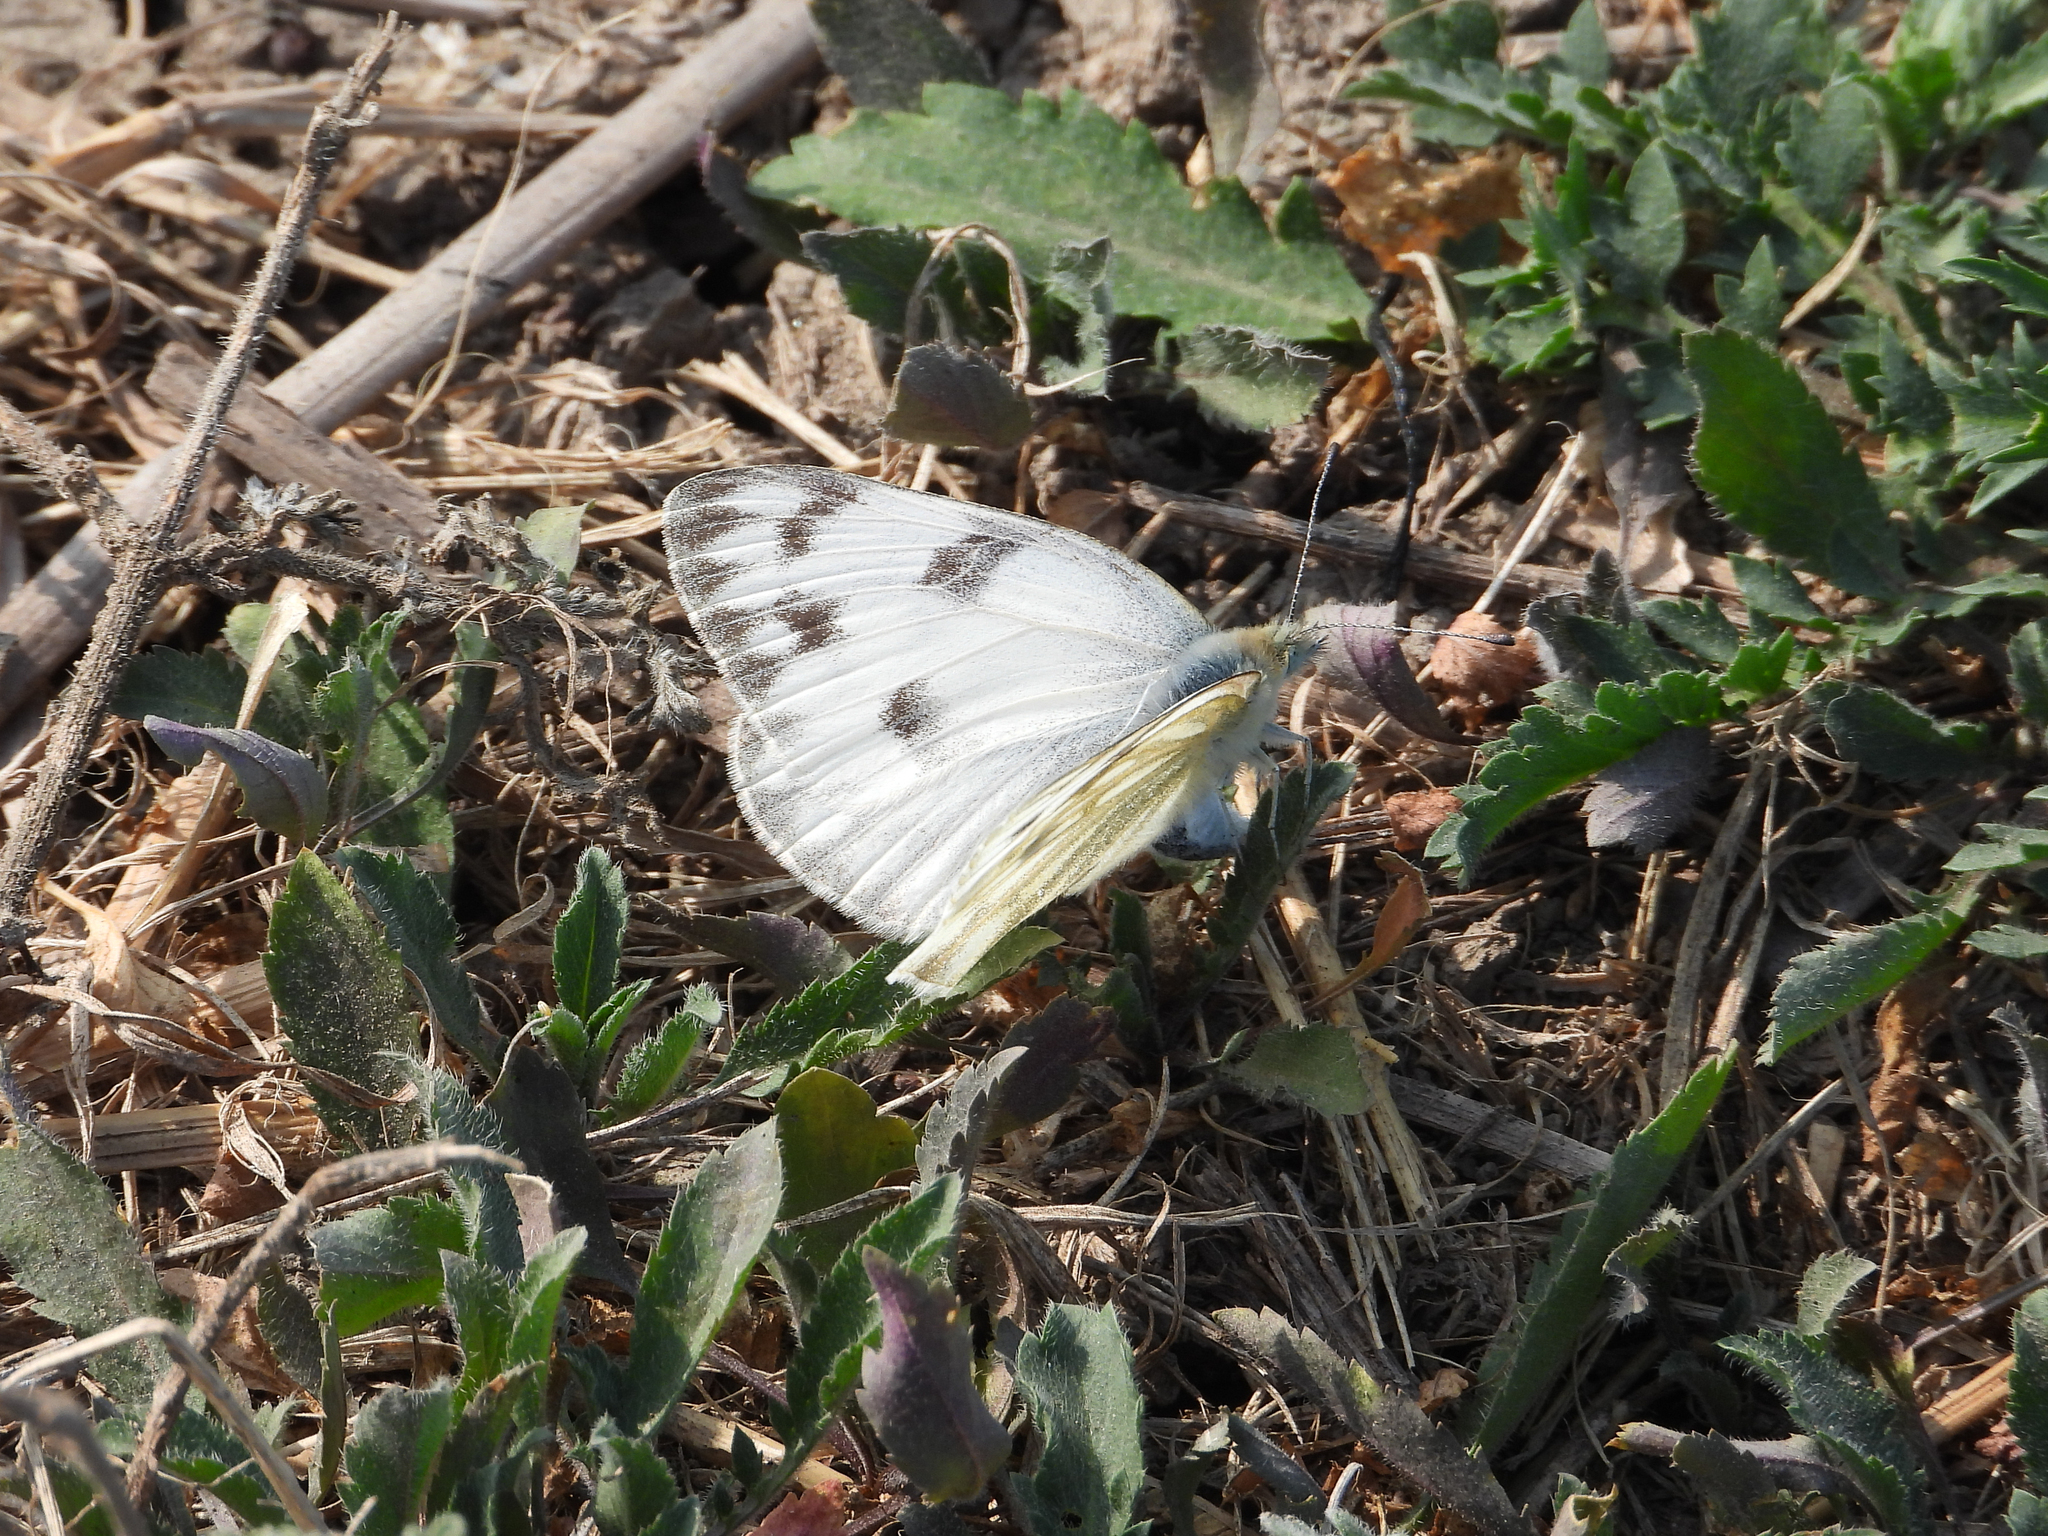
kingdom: Animalia
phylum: Arthropoda
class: Insecta
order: Lepidoptera
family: Pieridae
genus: Pontia
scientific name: Pontia protodice
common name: Checkered white
